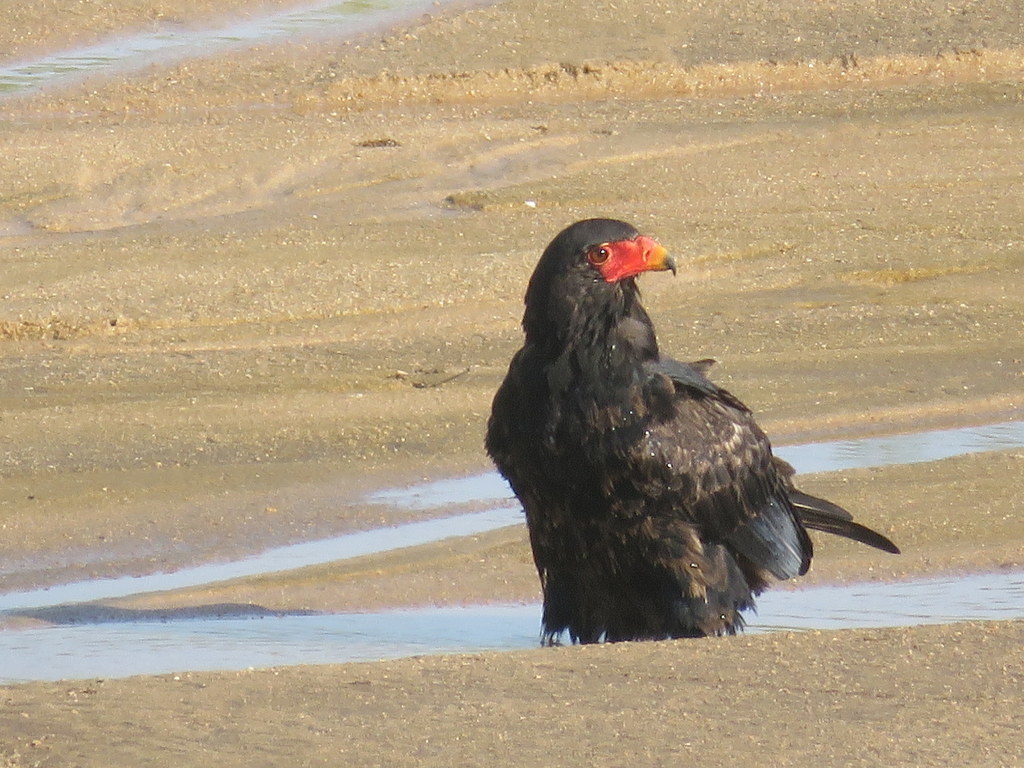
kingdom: Animalia
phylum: Chordata
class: Aves
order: Accipitriformes
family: Accipitridae
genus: Terathopius
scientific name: Terathopius ecaudatus
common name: Bateleur
